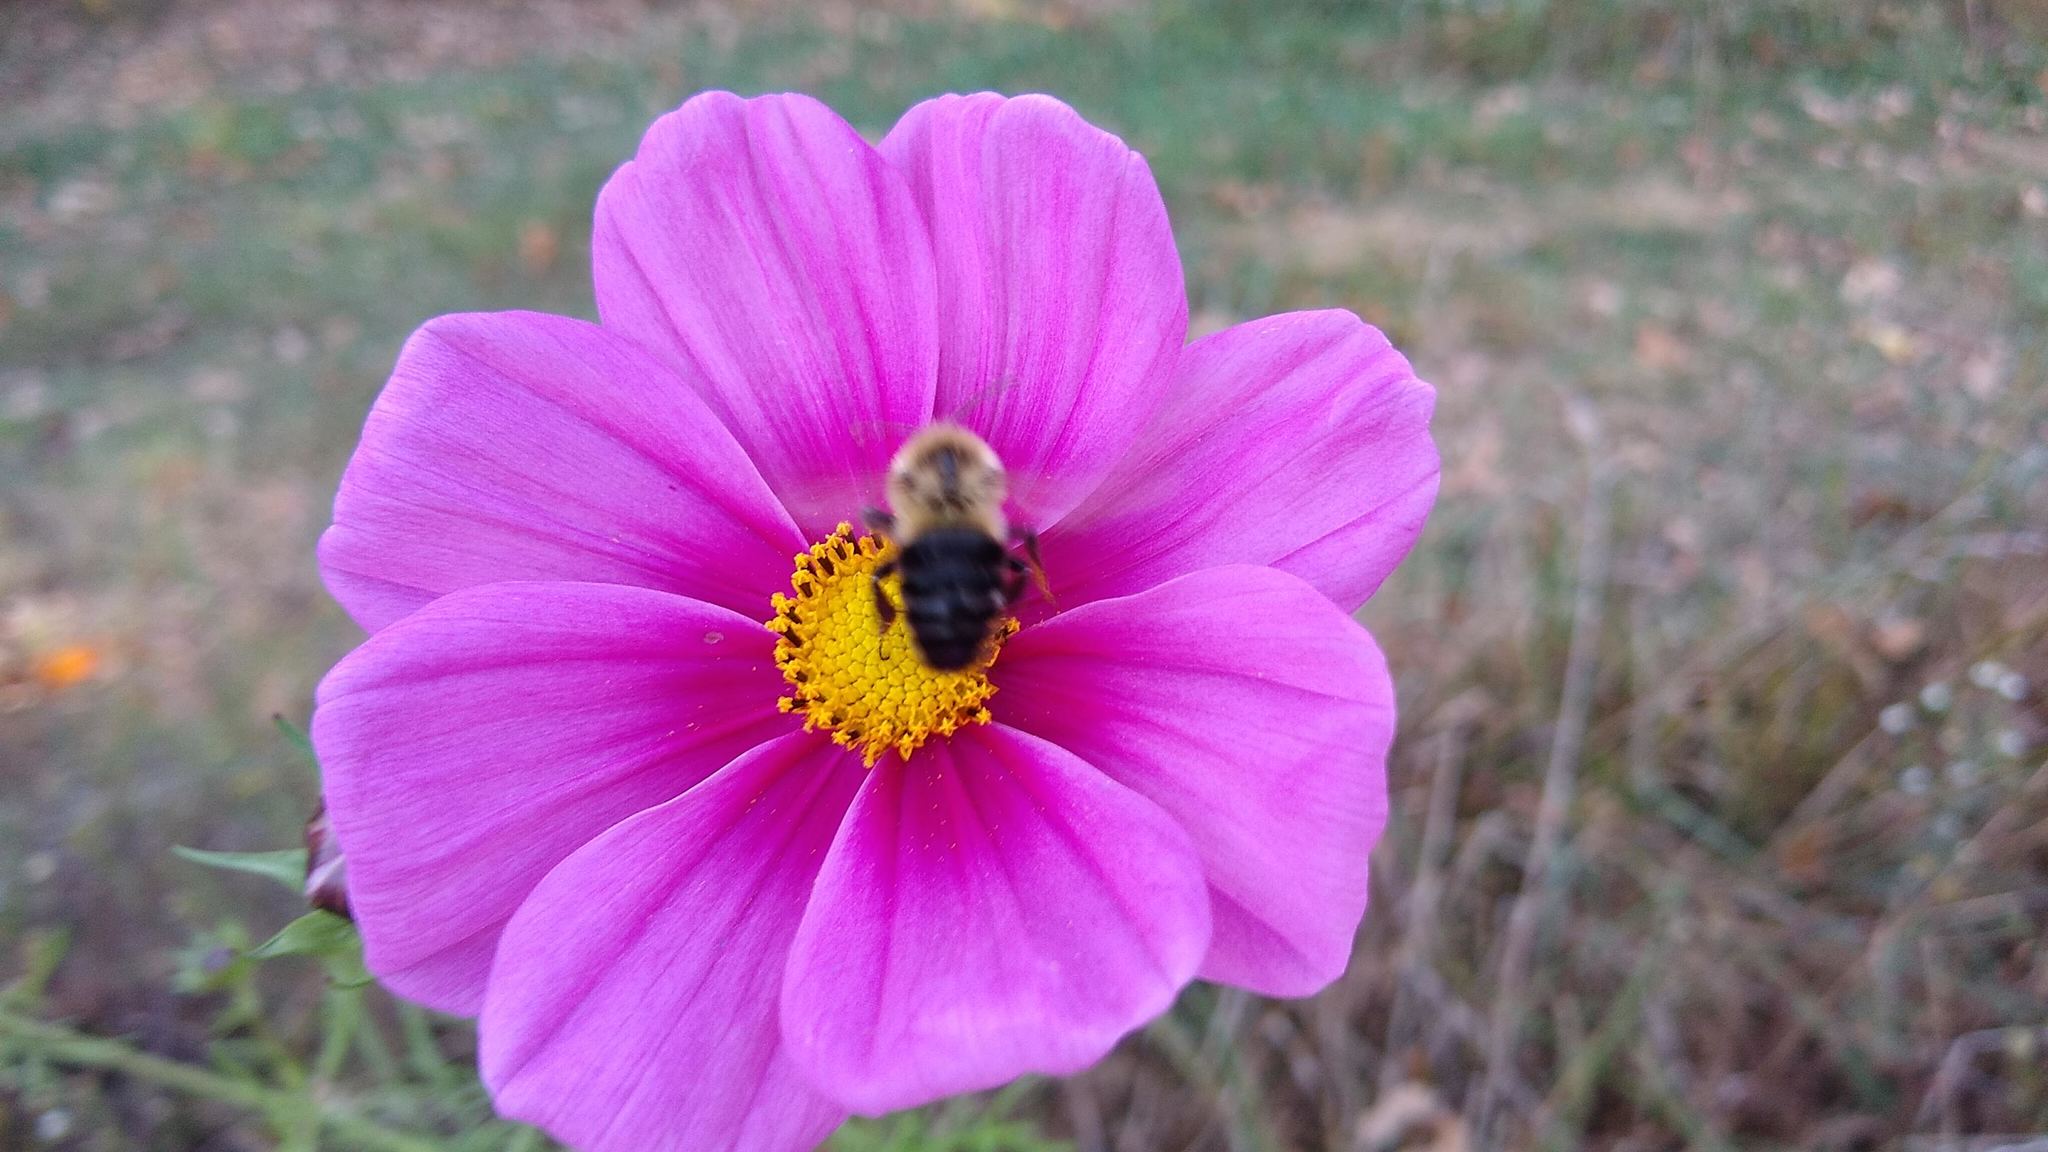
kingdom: Animalia
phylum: Arthropoda
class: Insecta
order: Hymenoptera
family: Apidae
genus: Bombus
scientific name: Bombus impatiens
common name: Common eastern bumble bee
